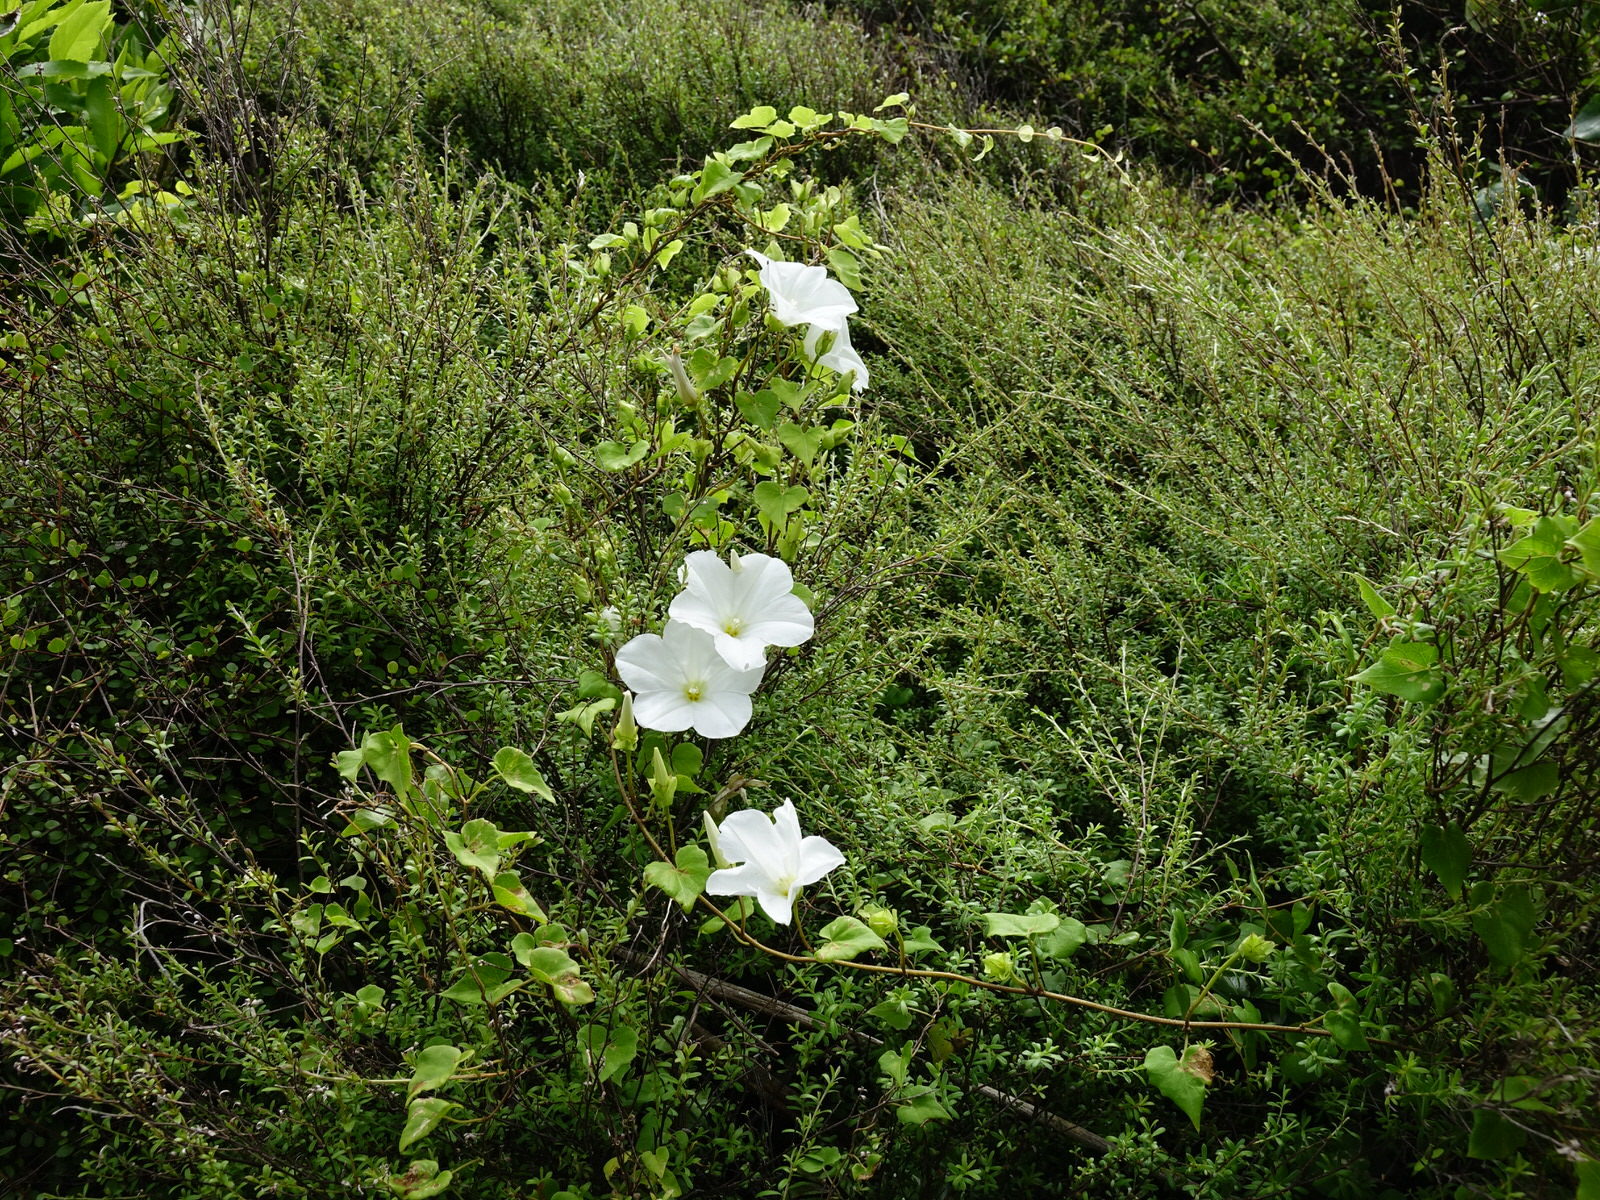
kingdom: Plantae
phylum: Tracheophyta
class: Magnoliopsida
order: Solanales
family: Convolvulaceae
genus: Calystegia
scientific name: Calystegia tuguriorum
